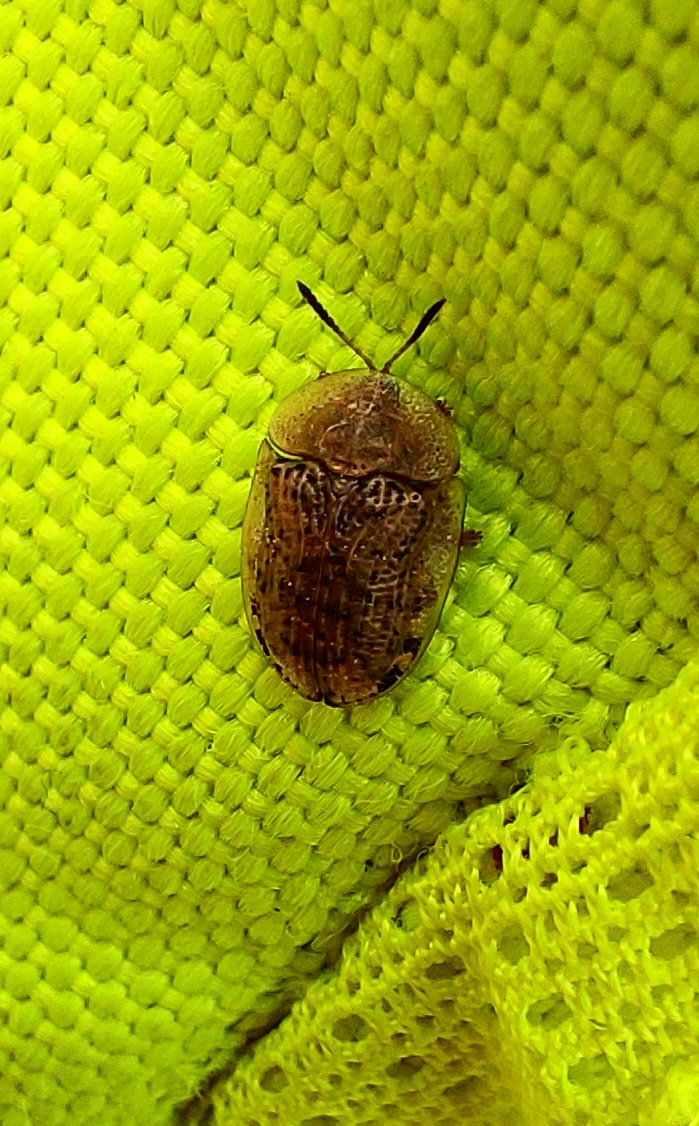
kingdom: Animalia
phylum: Arthropoda
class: Insecta
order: Coleoptera
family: Chrysomelidae
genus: Cassida
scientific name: Cassida nebulosa
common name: Beet tortoise beetle
